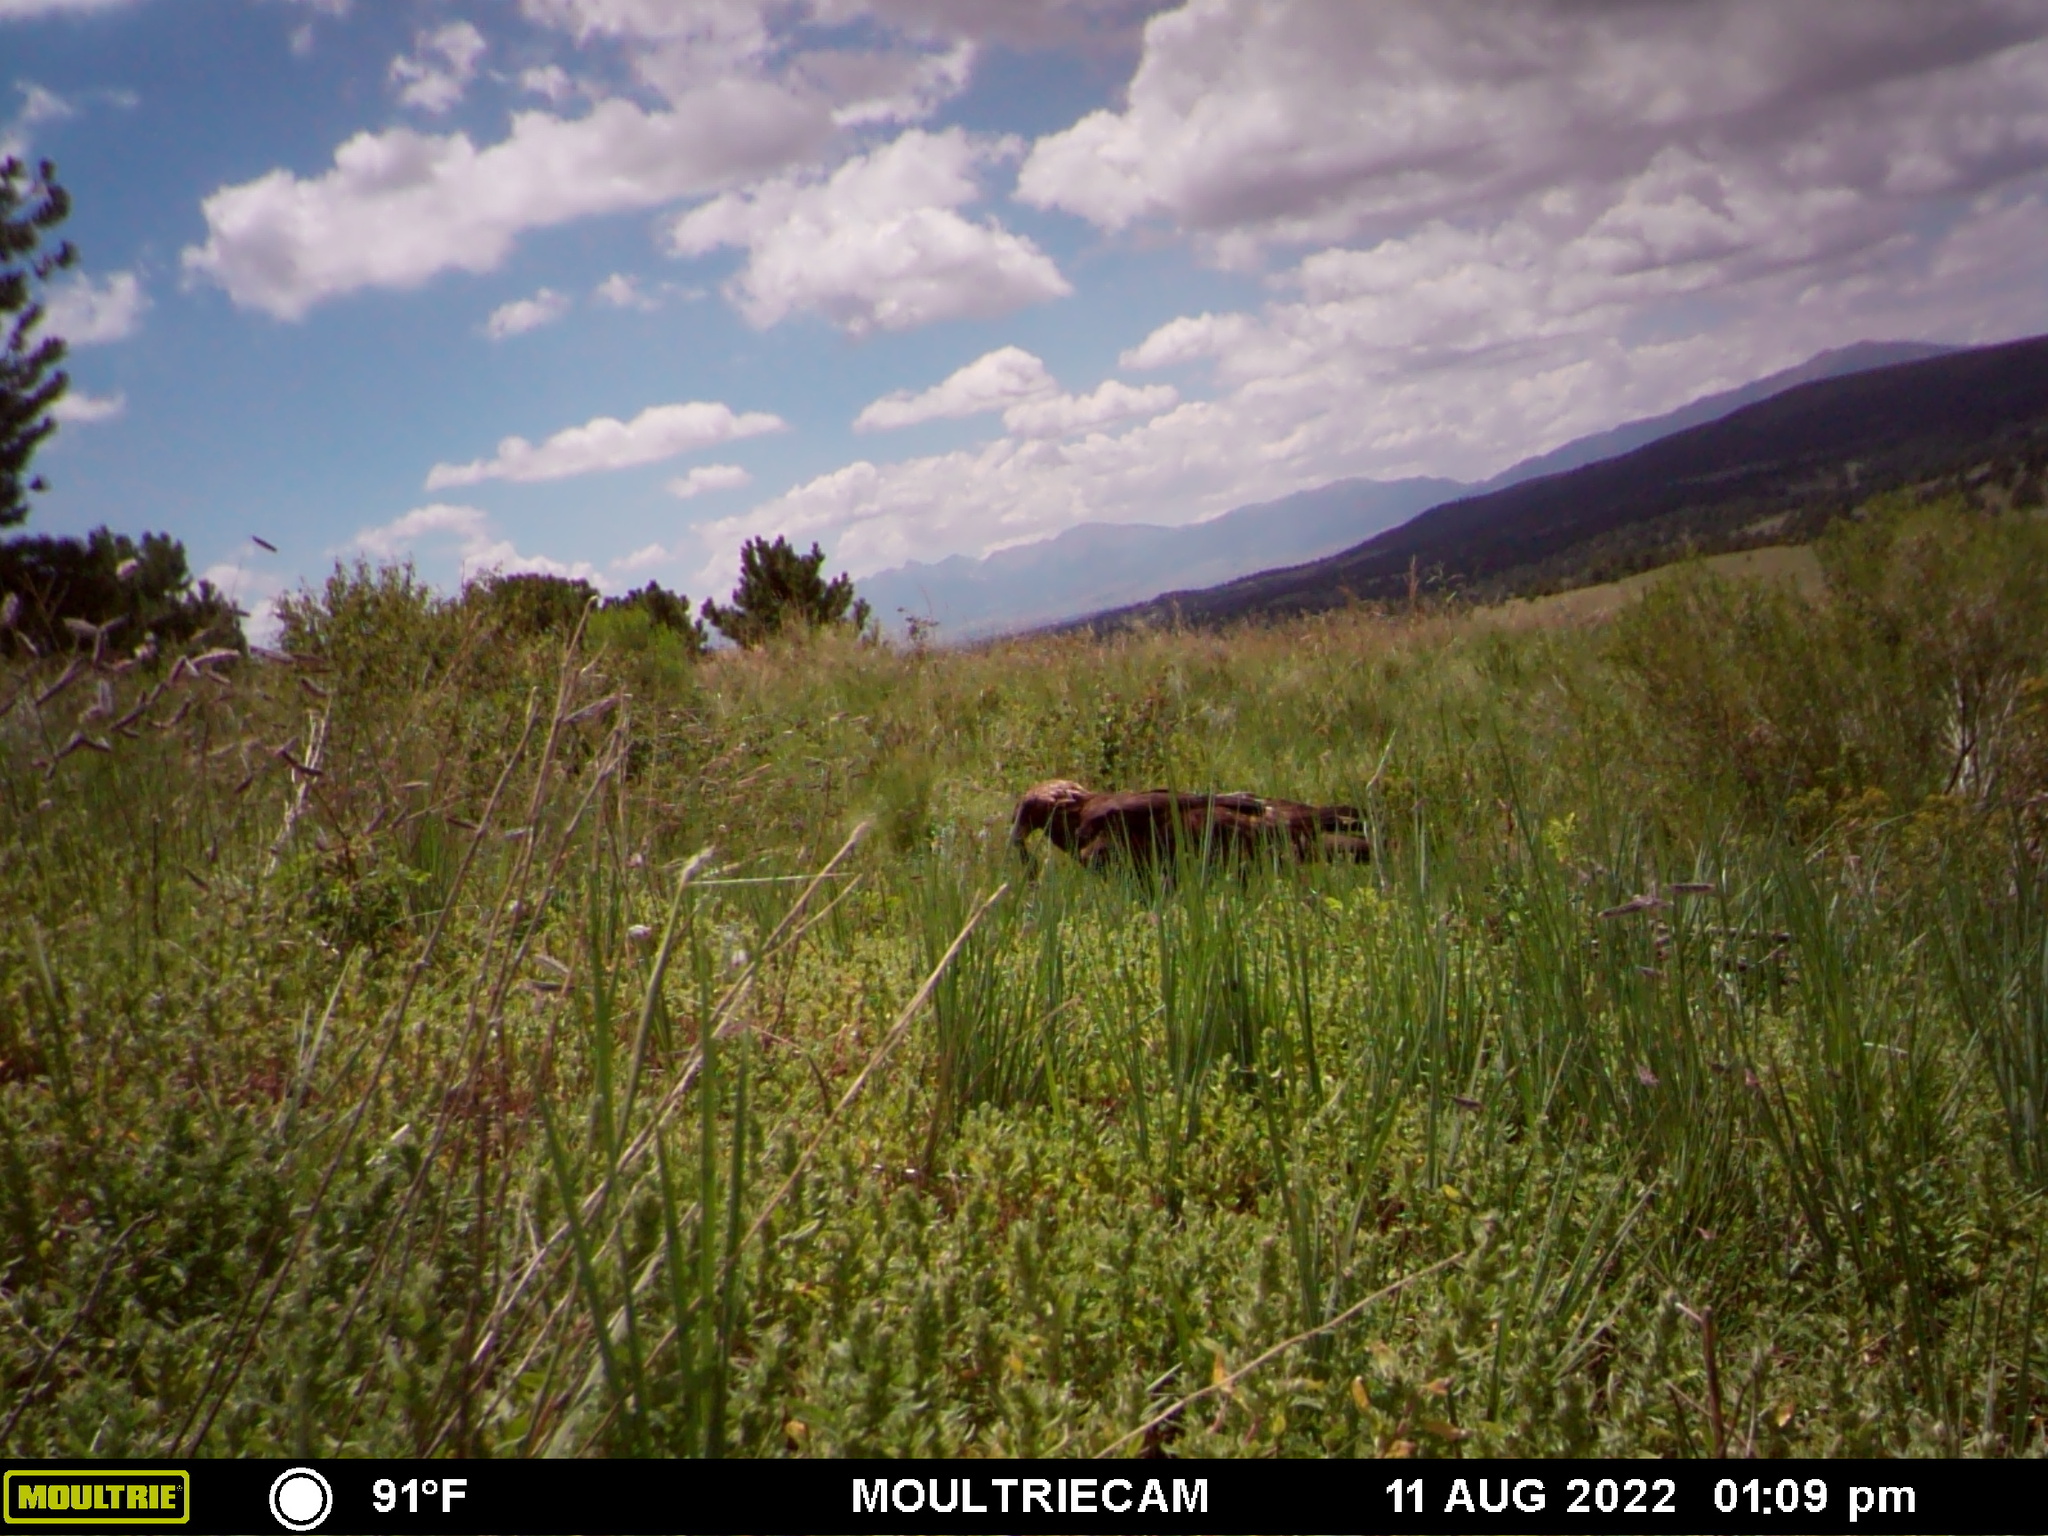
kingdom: Animalia
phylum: Chordata
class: Aves
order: Accipitriformes
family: Accipitridae
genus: Aquila
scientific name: Aquila chrysaetos
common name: Golden eagle
